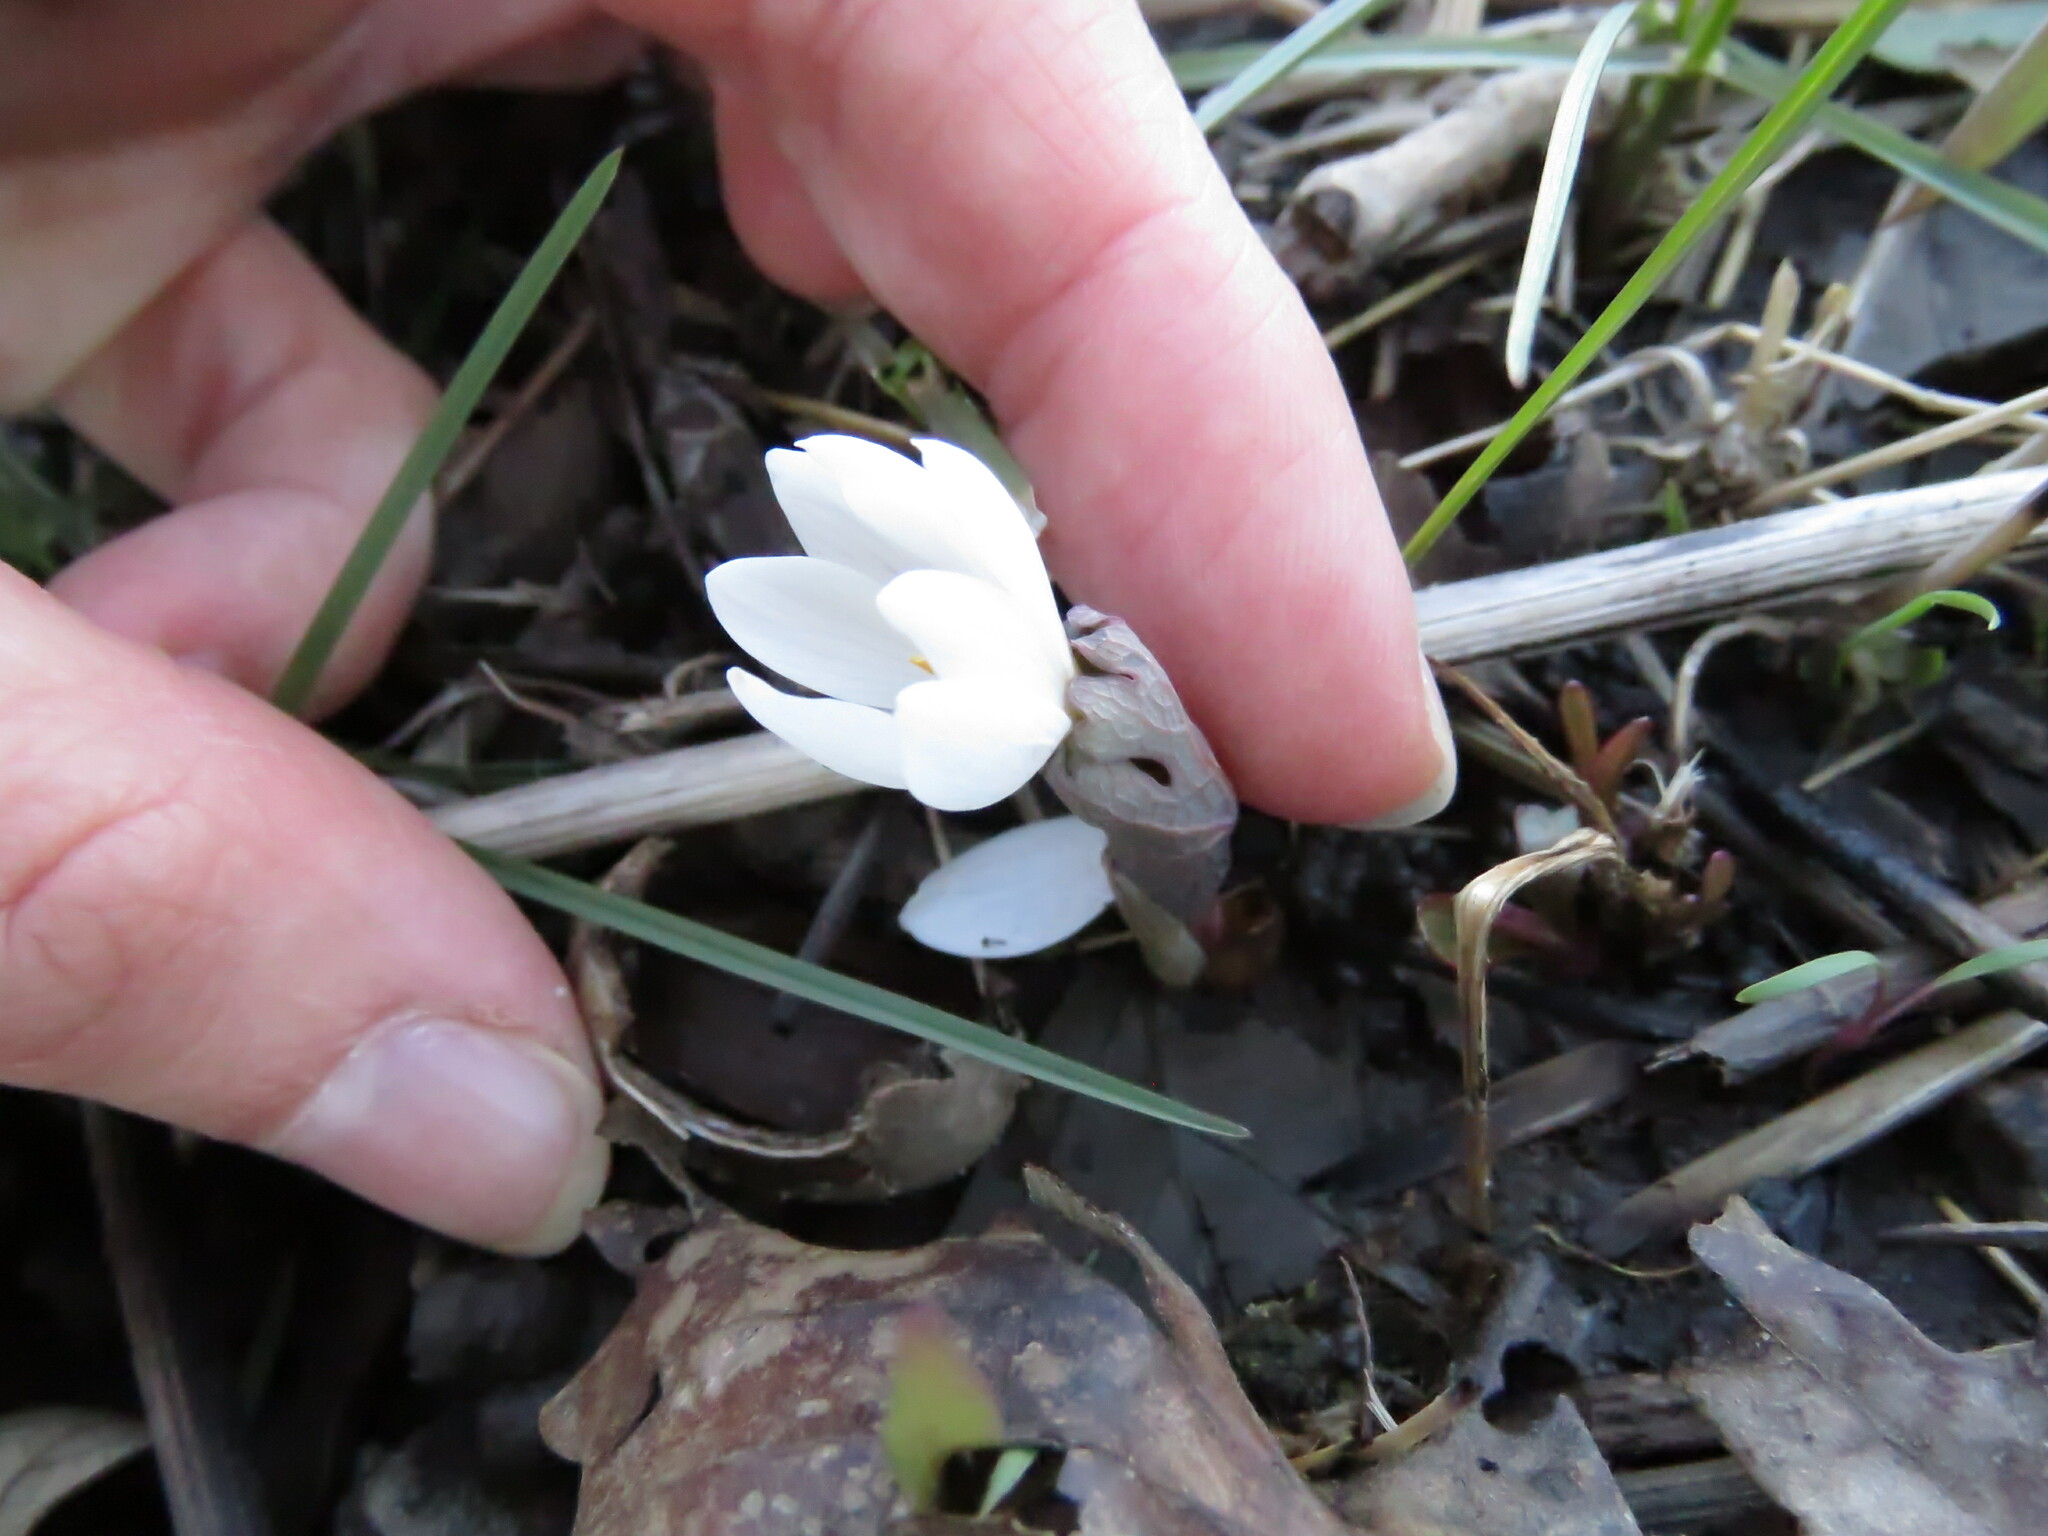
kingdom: Plantae
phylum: Tracheophyta
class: Magnoliopsida
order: Ranunculales
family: Papaveraceae
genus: Sanguinaria
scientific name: Sanguinaria canadensis
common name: Bloodroot
